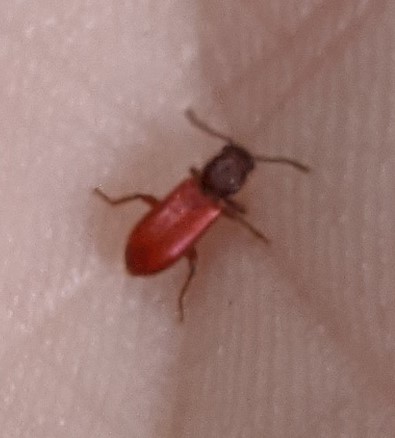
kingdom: Animalia
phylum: Arthropoda
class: Insecta
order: Coleoptera
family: Thanerocleridae
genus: Zenodosus
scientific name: Zenodosus sanguineus
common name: Blood-colored checkered beetle
